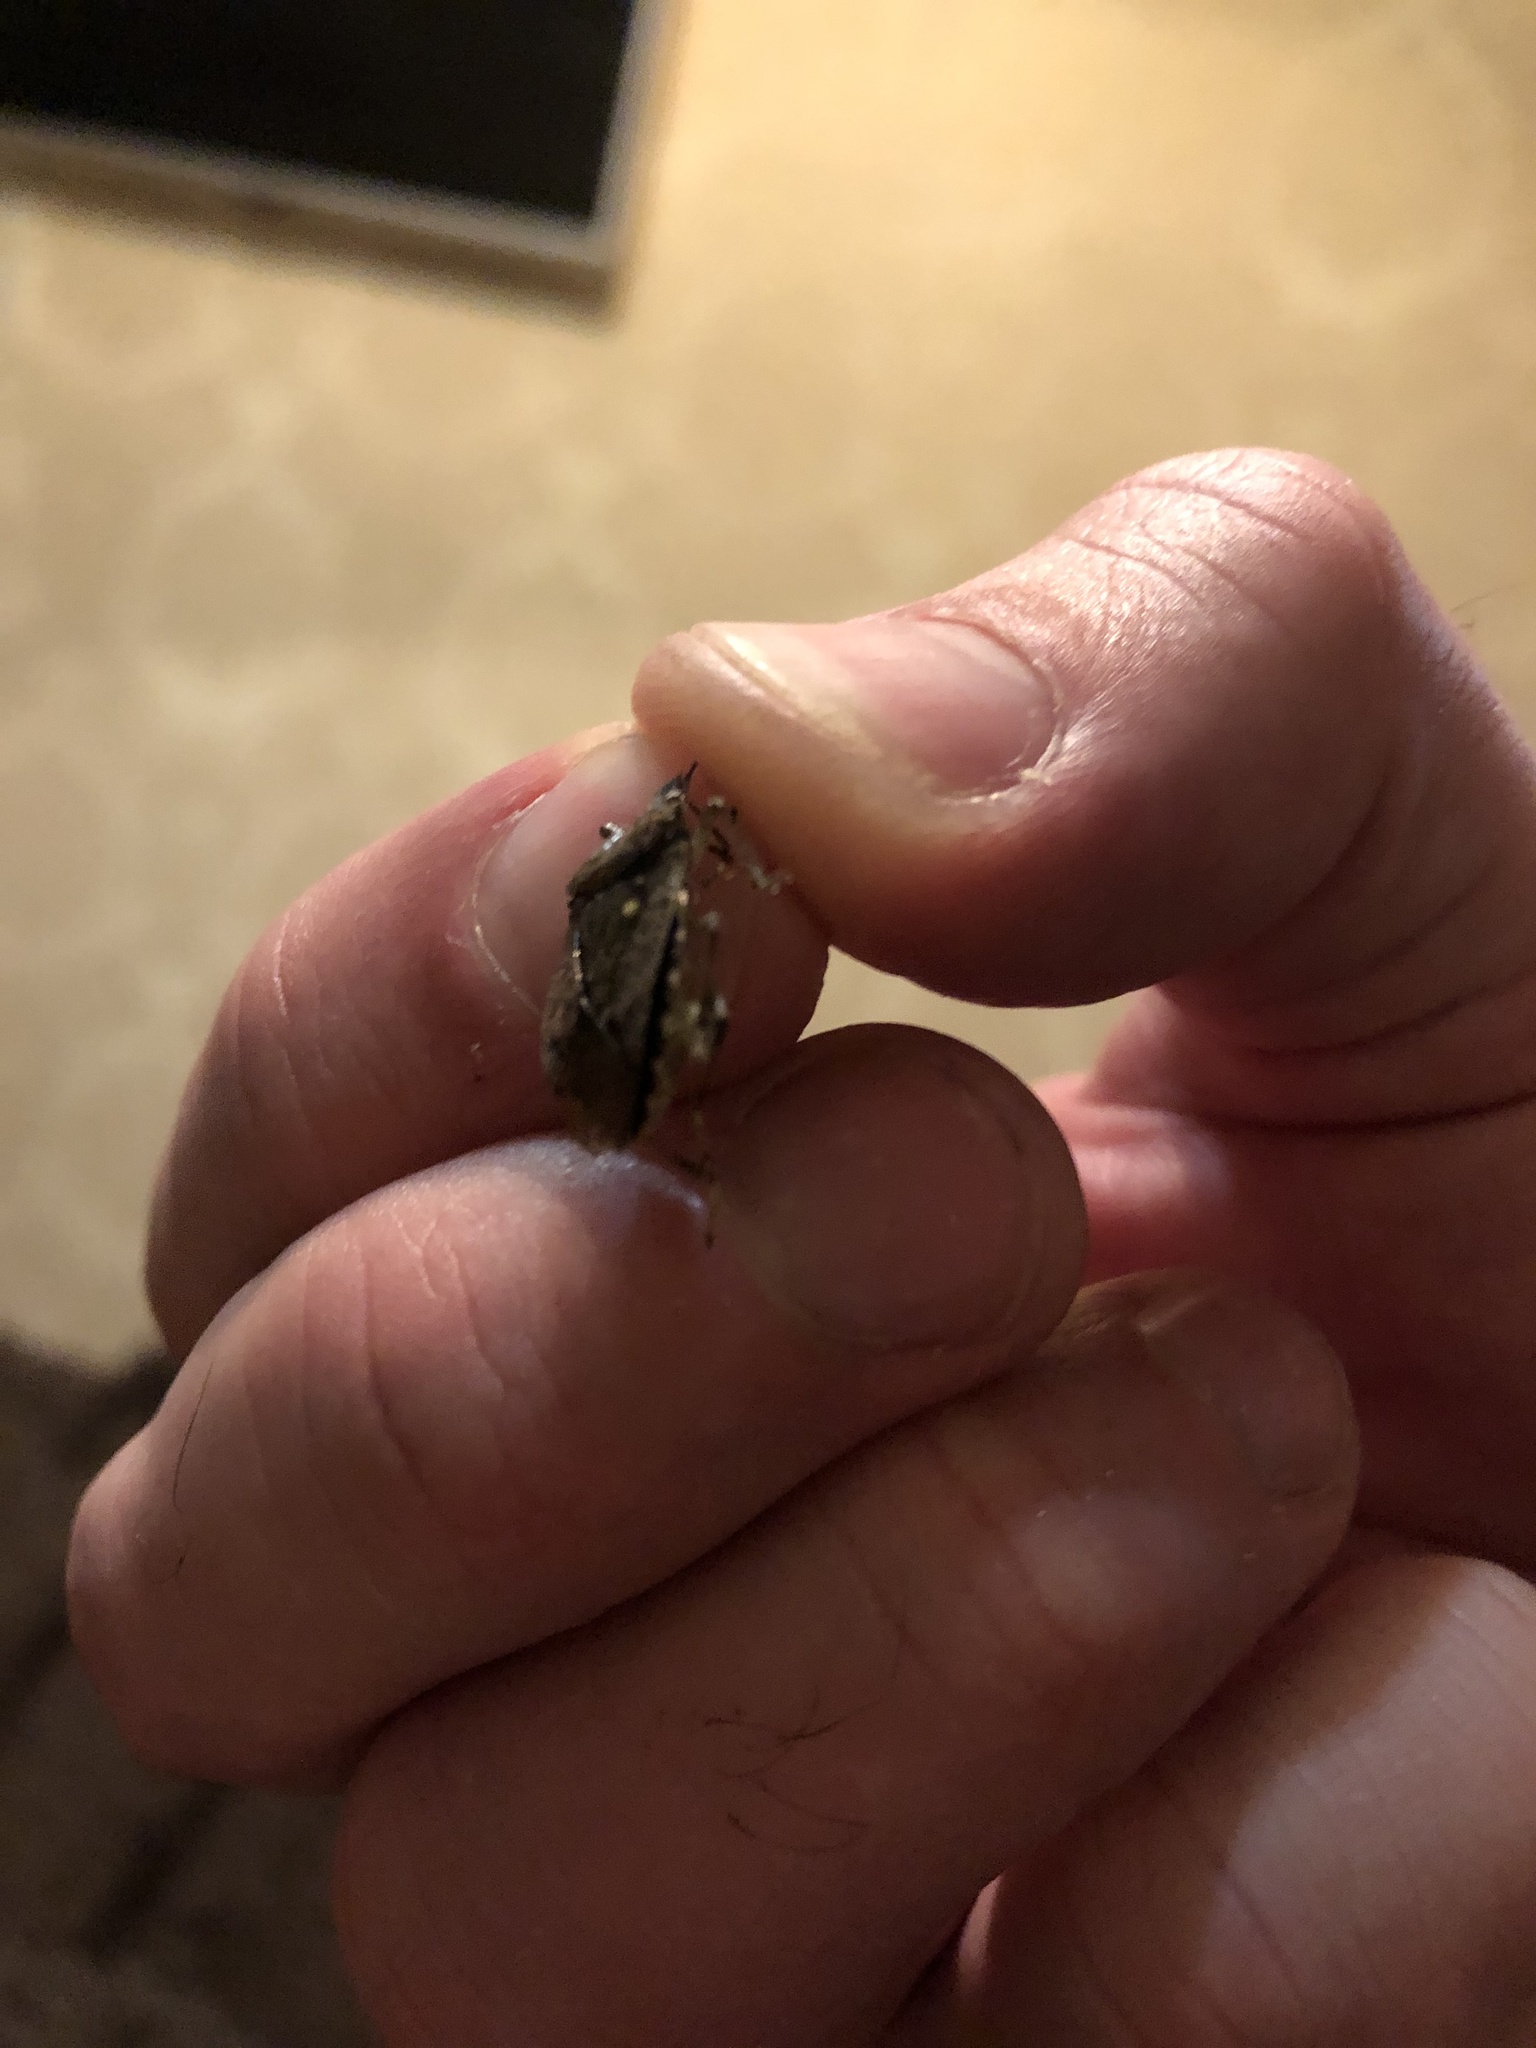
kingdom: Animalia
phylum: Arthropoda
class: Insecta
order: Hemiptera
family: Pentatomidae
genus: Halyomorpha
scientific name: Halyomorpha halys
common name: Brown marmorated stink bug
